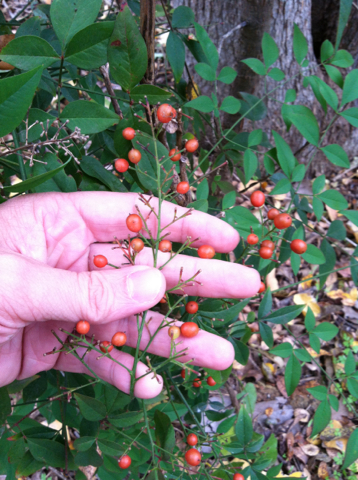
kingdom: Plantae
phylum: Tracheophyta
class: Magnoliopsida
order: Ranunculales
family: Berberidaceae
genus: Nandina
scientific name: Nandina domestica
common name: Sacred bamboo
